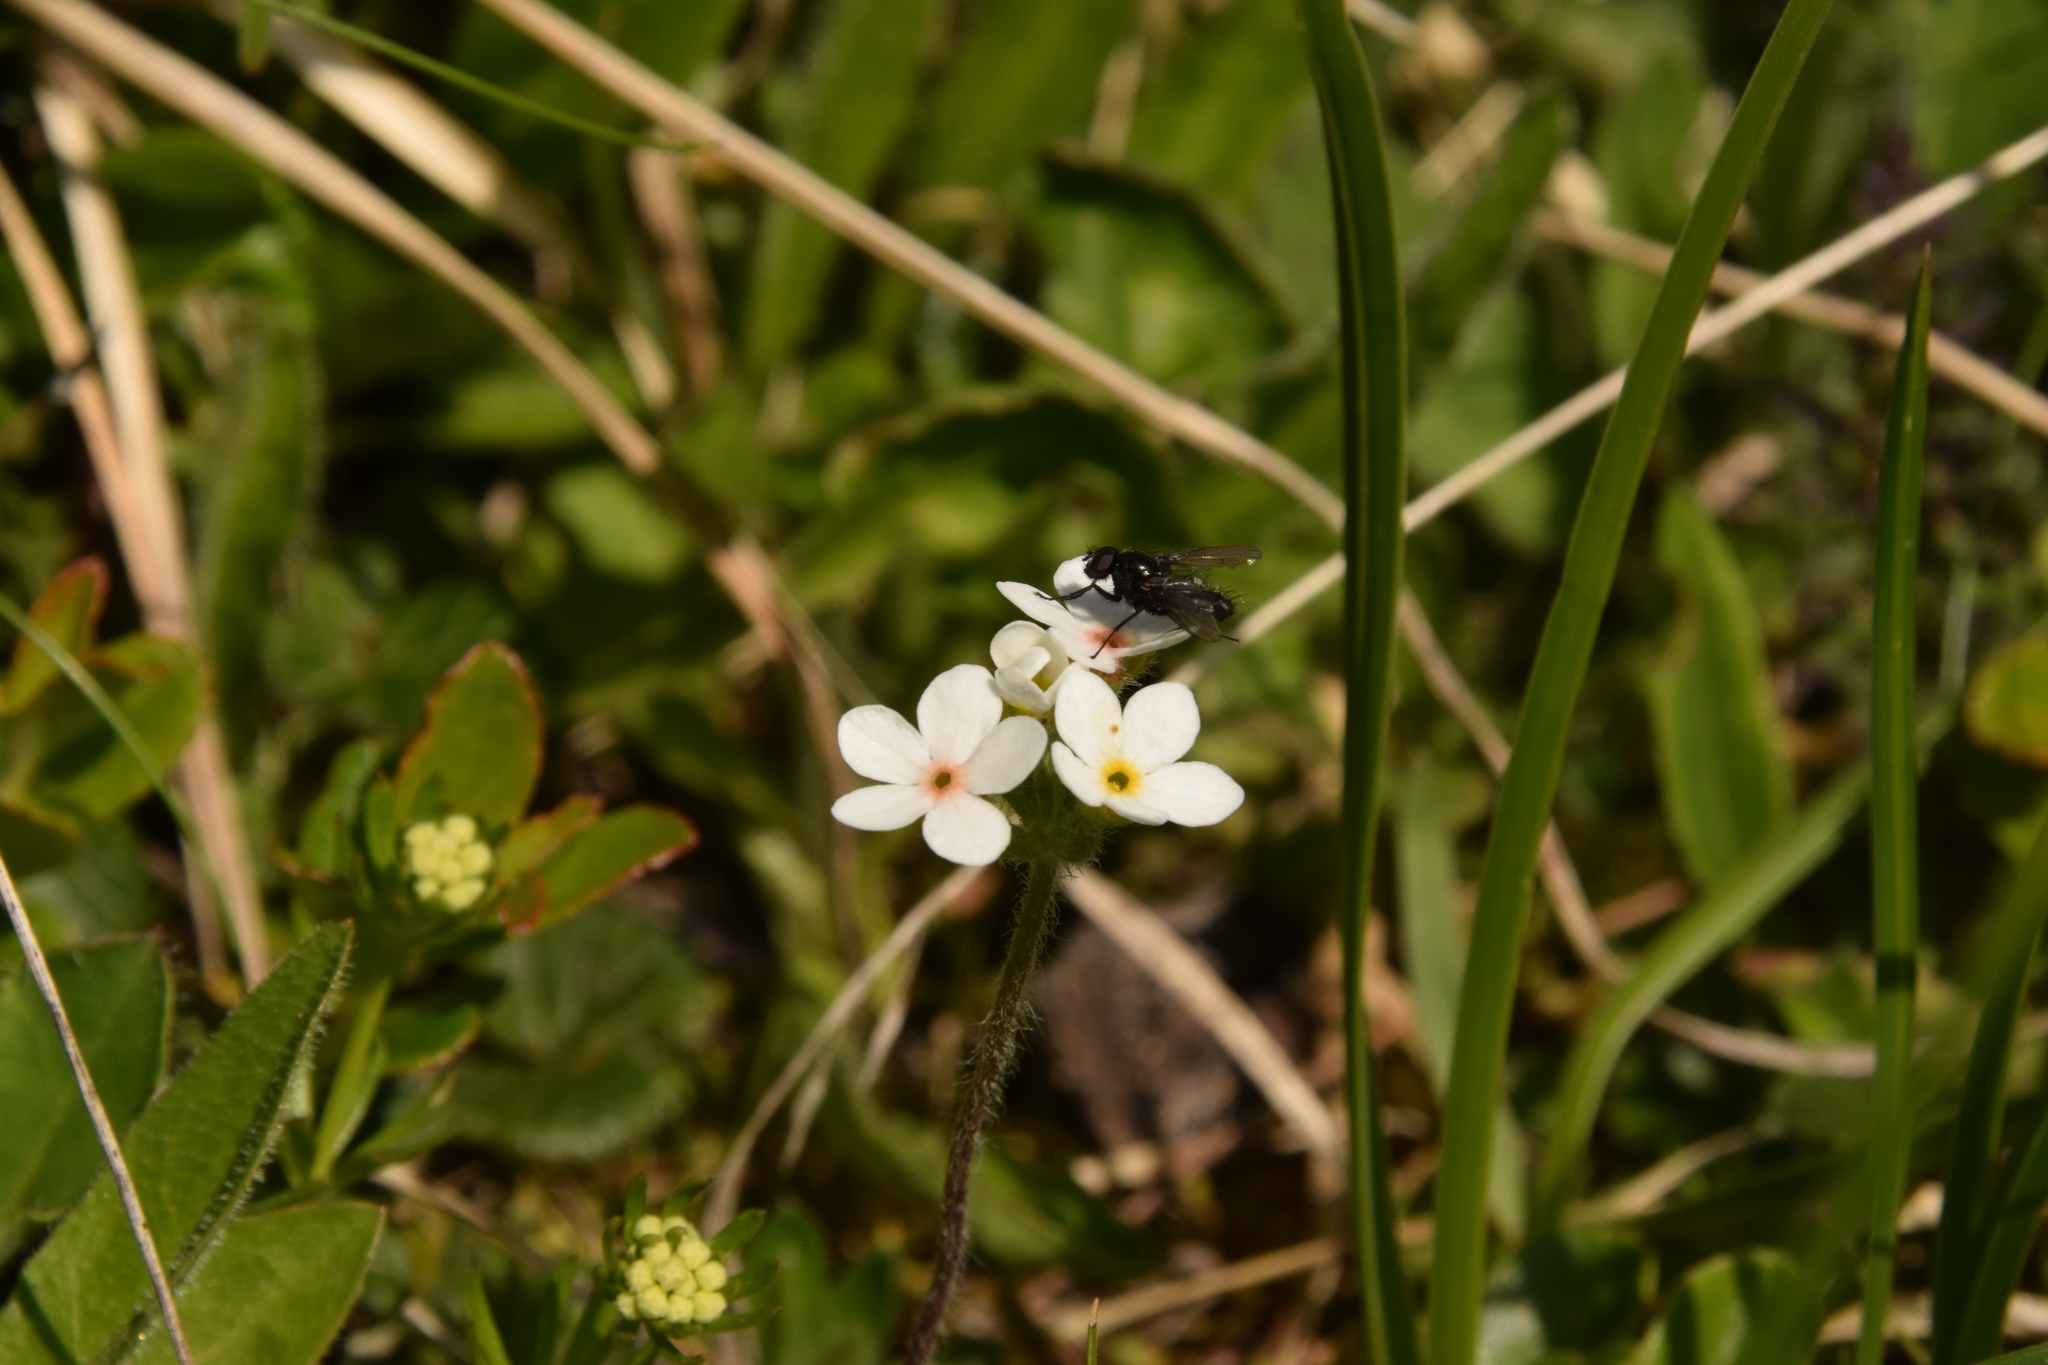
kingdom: Plantae
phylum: Tracheophyta
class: Magnoliopsida
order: Ericales
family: Primulaceae
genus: Androsace
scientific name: Androsace chamaejasme
